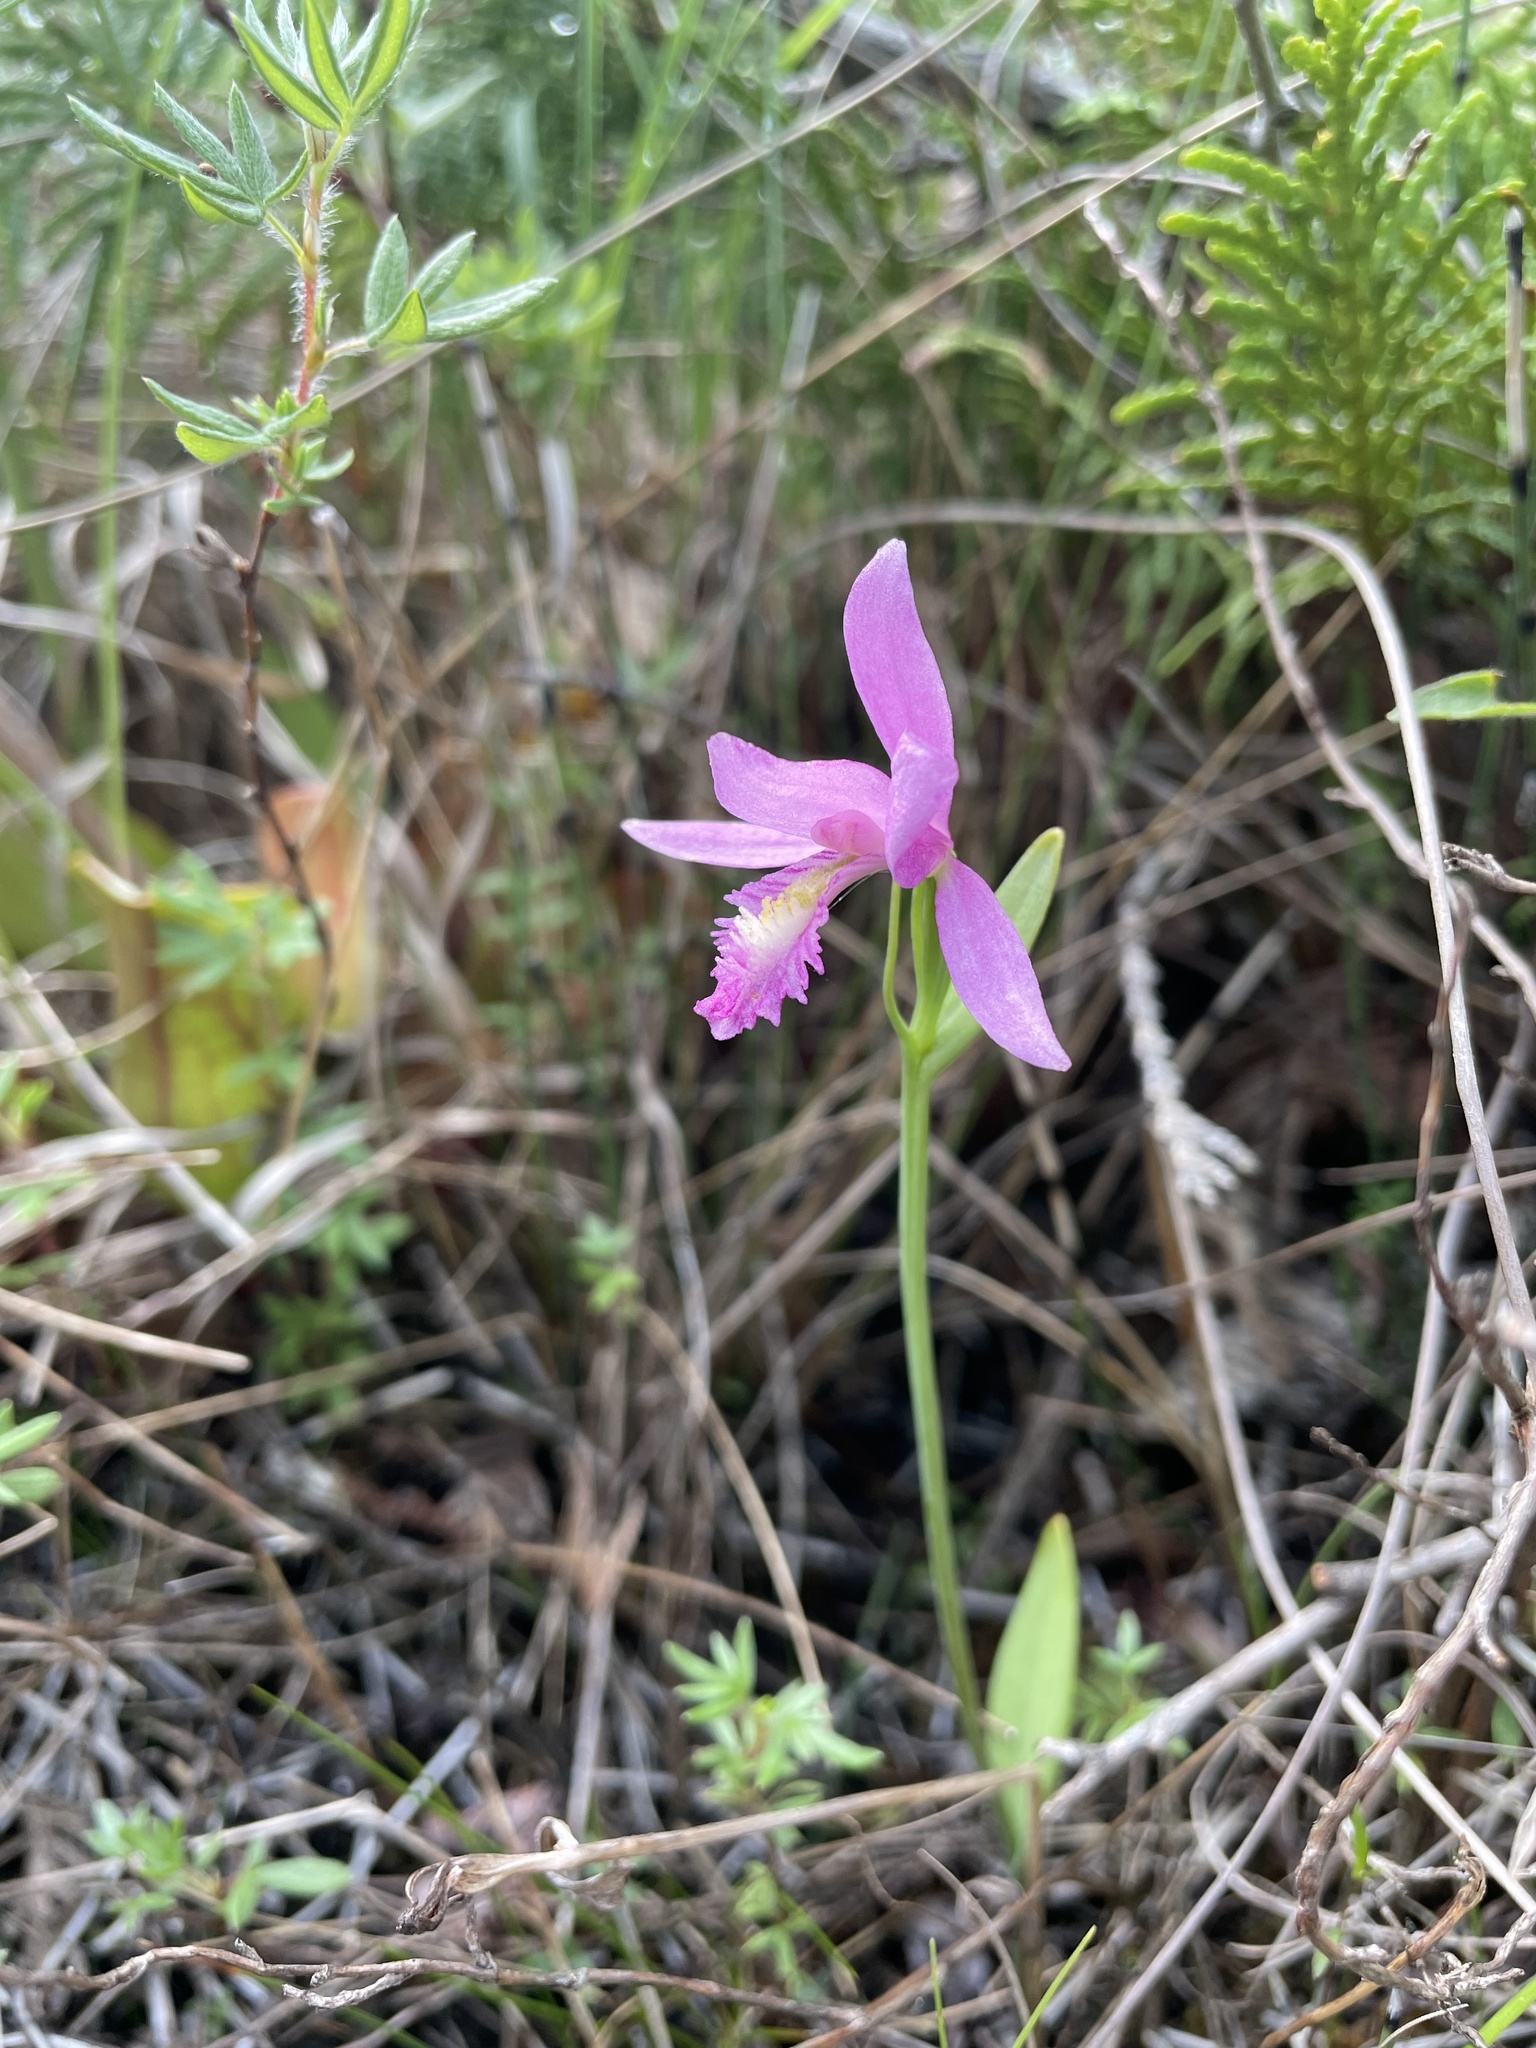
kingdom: Plantae
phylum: Tracheophyta
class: Liliopsida
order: Asparagales
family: Orchidaceae
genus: Pogonia
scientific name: Pogonia ophioglossoides
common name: Rose pogonia
